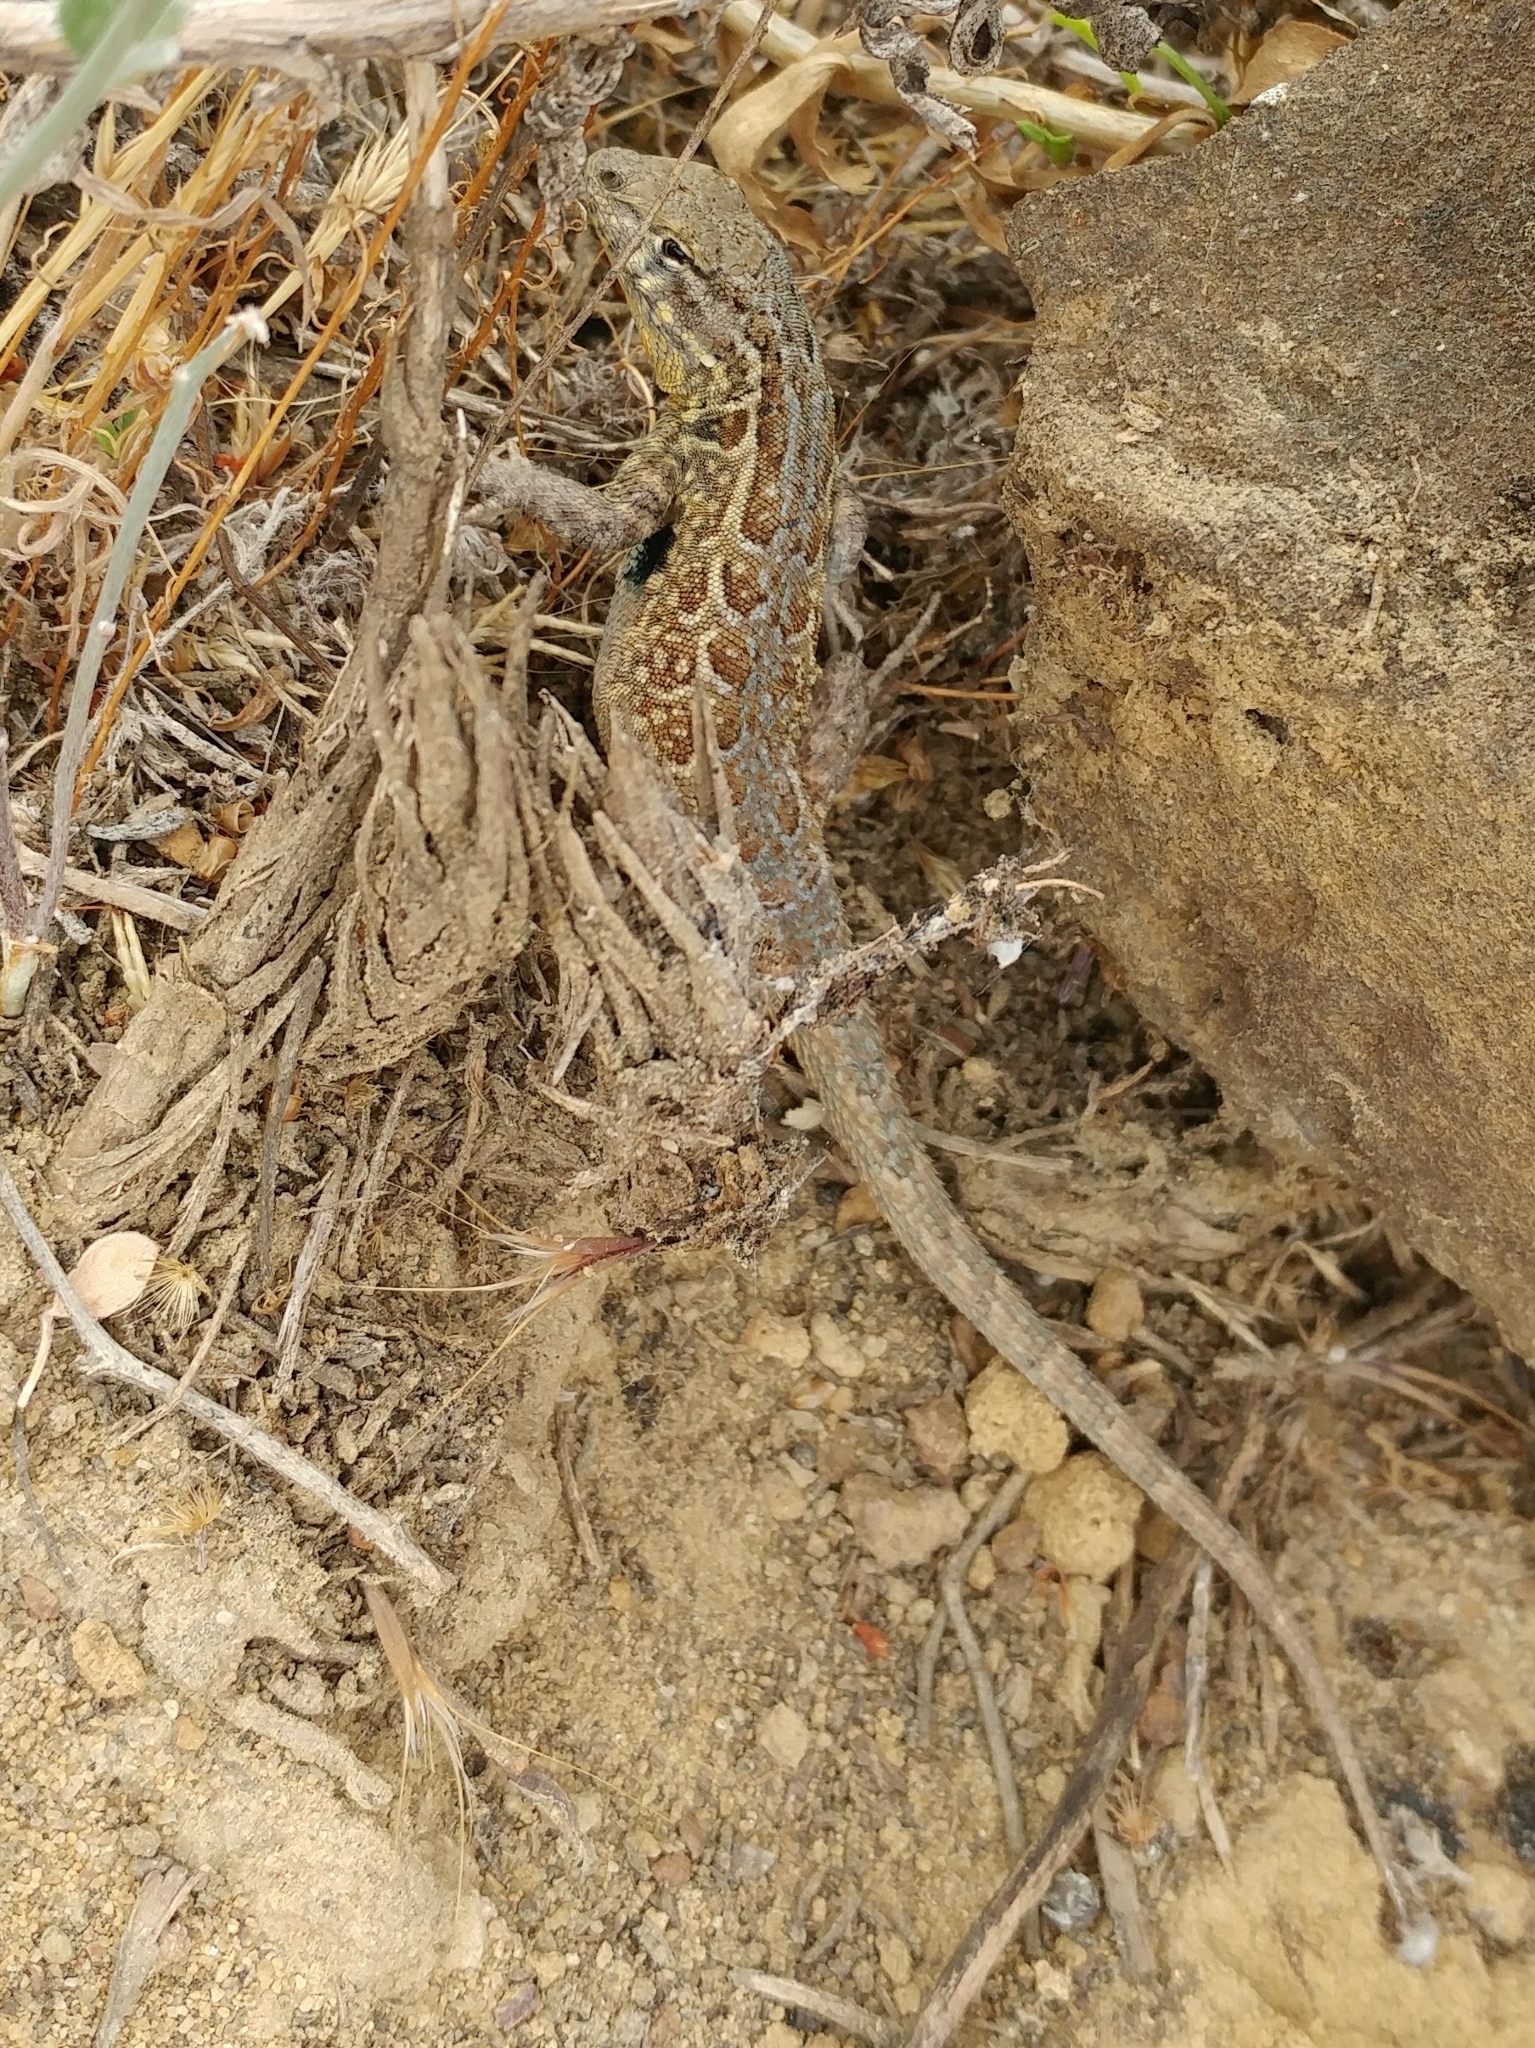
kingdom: Animalia
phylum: Chordata
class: Squamata
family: Phrynosomatidae
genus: Uta
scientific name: Uta stansburiana
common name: Side-blotched lizard
